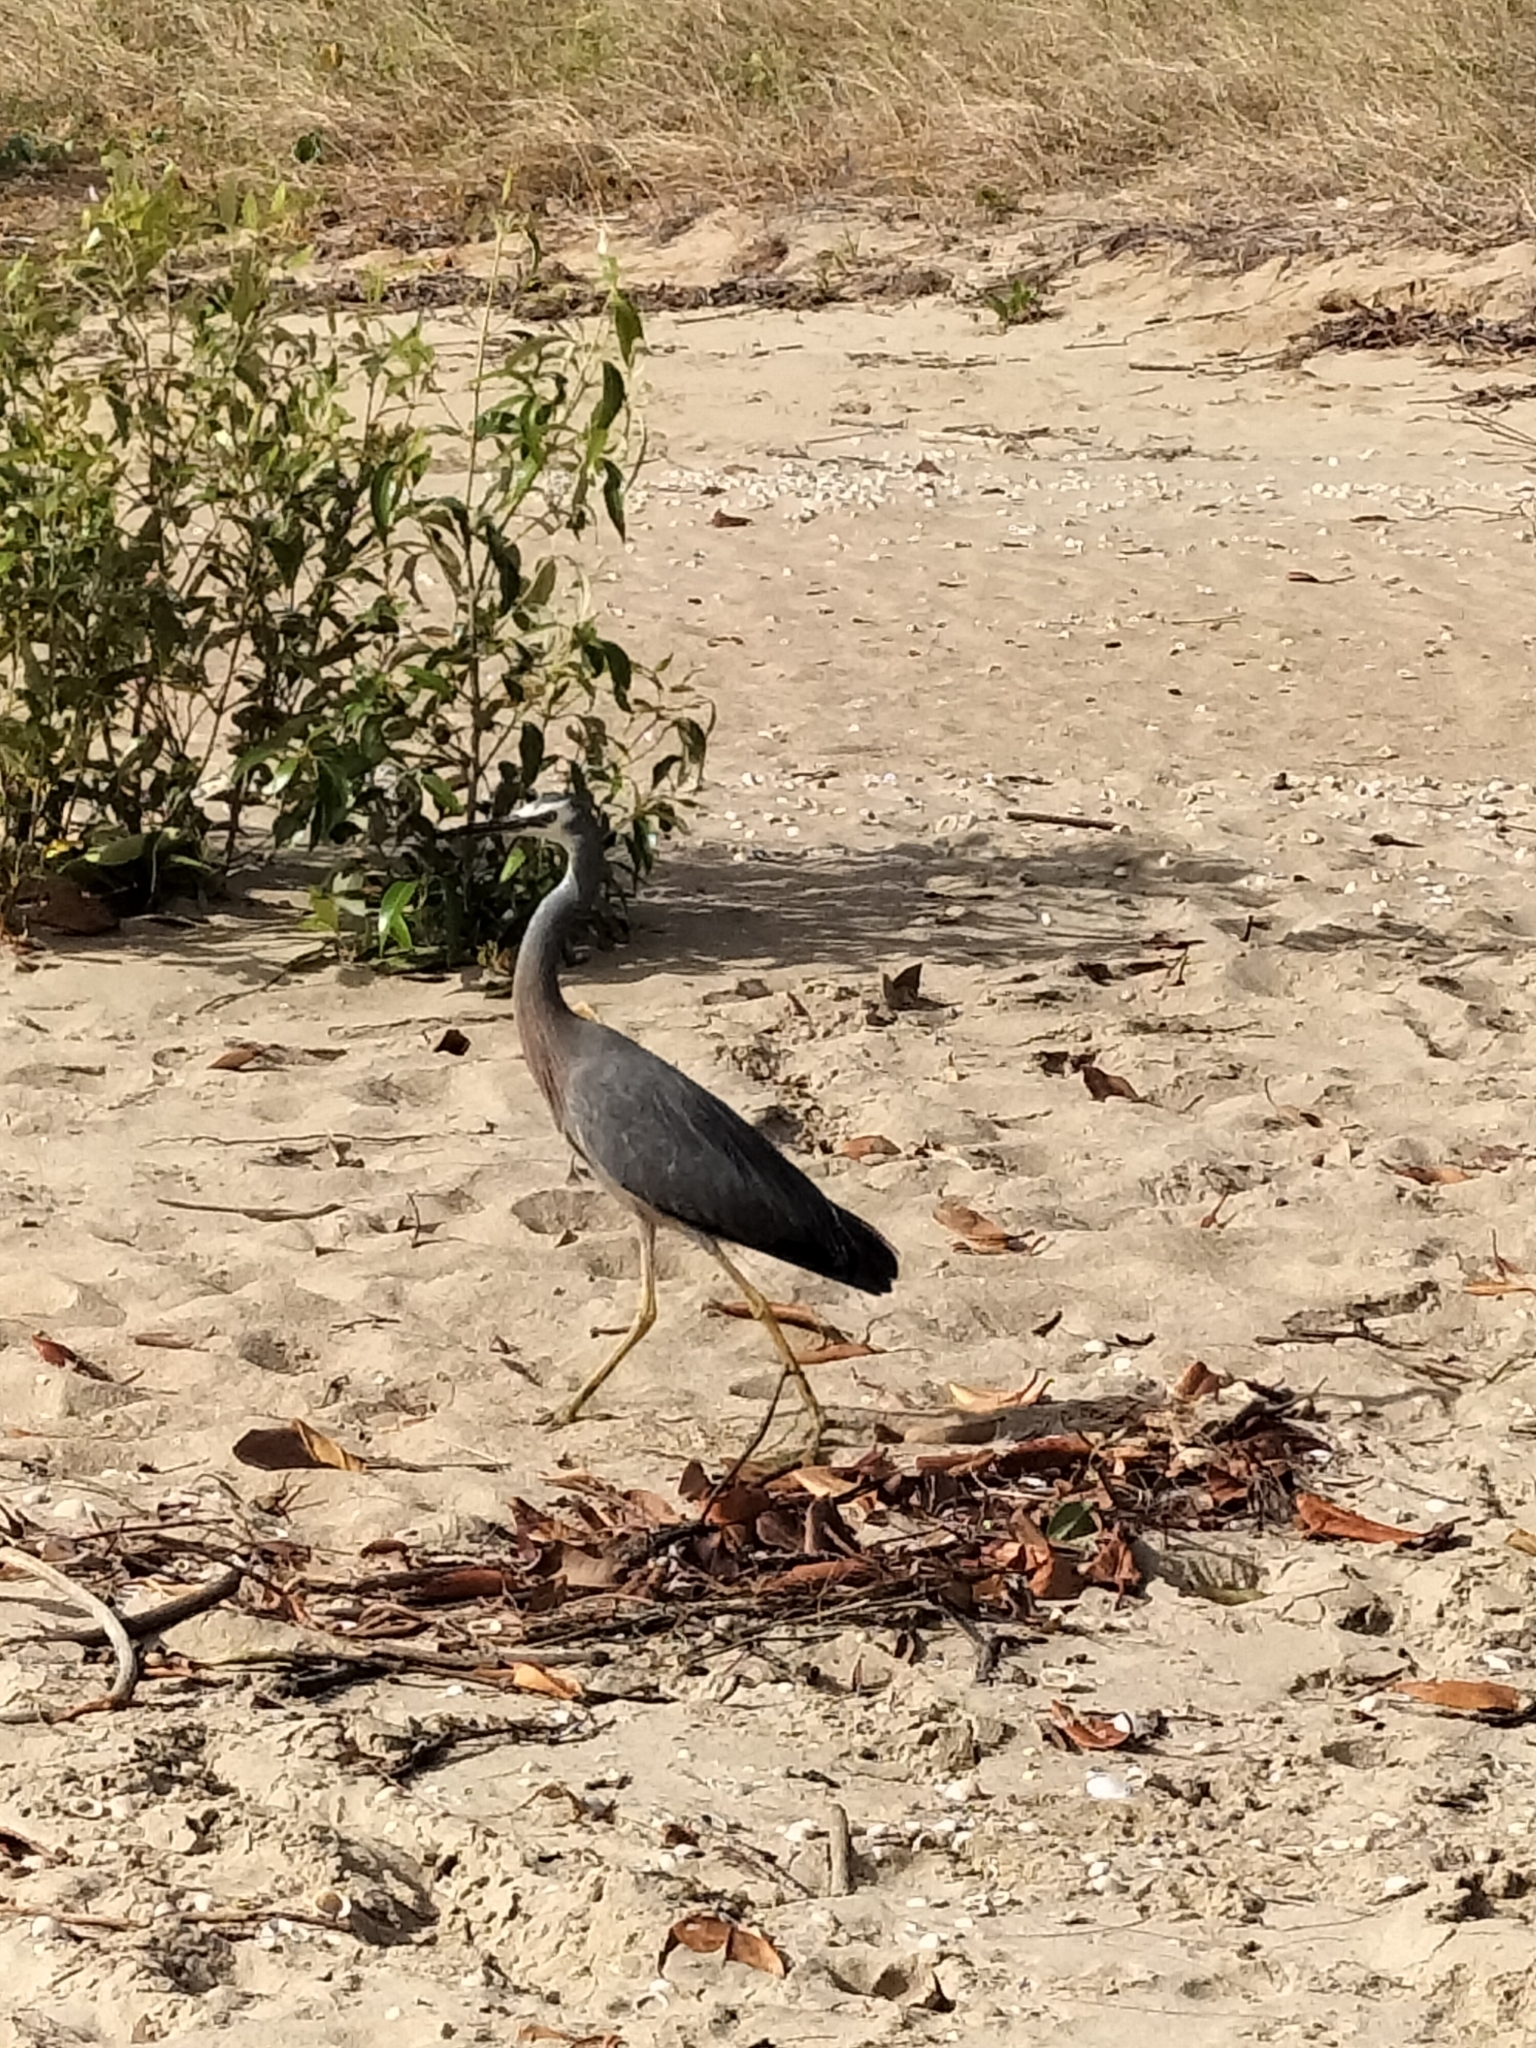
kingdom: Animalia
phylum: Chordata
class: Aves
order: Pelecaniformes
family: Ardeidae
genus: Egretta
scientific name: Egretta novaehollandiae
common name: White-faced heron
